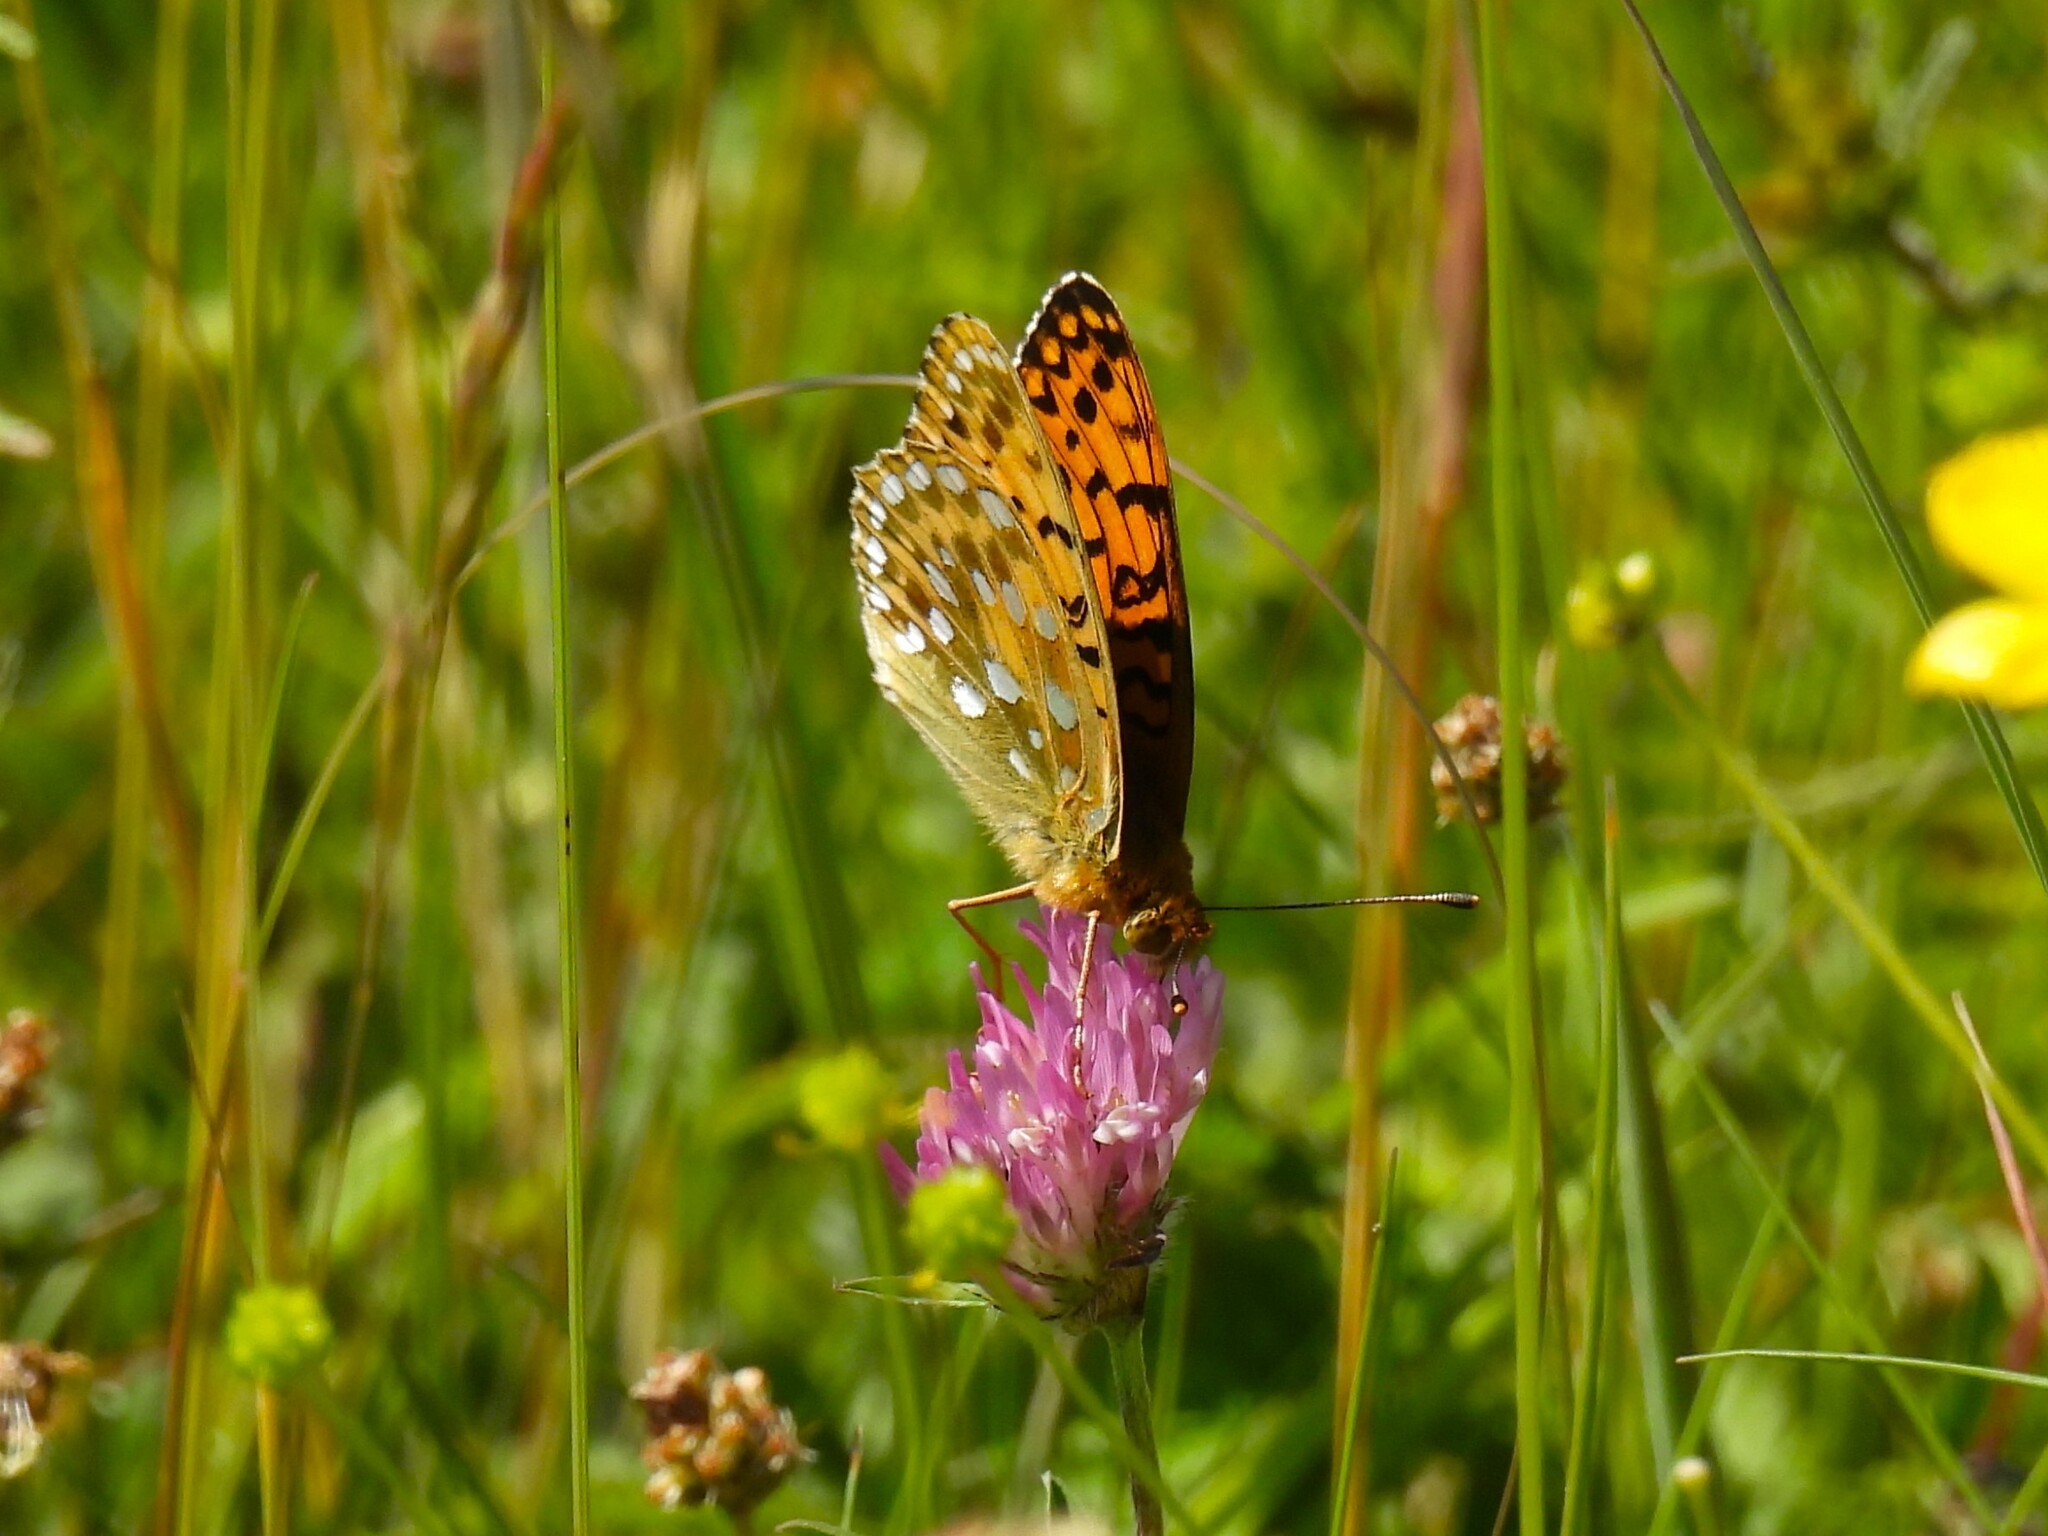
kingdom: Animalia
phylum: Arthropoda
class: Insecta
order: Lepidoptera
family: Nymphalidae
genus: Speyeria
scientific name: Speyeria aglaja
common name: Dark green fritillary
